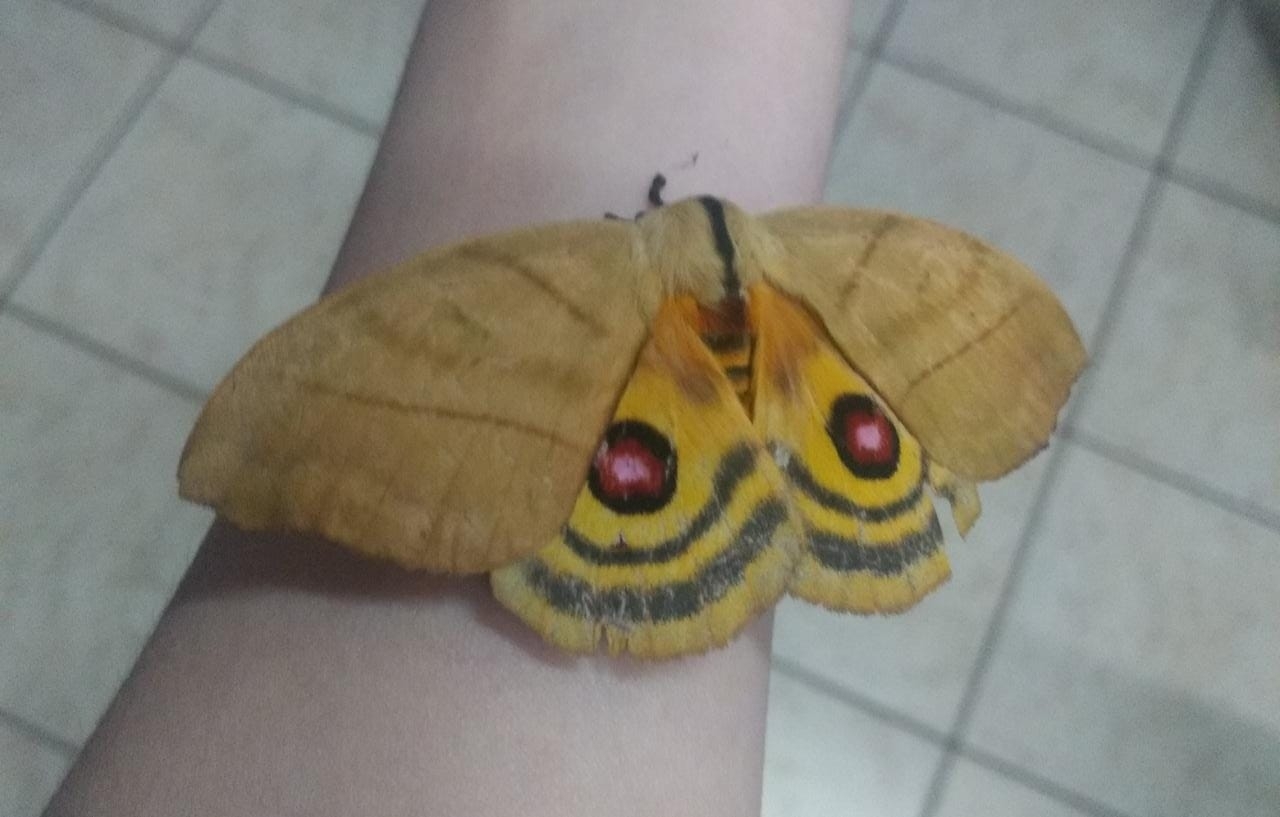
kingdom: Animalia
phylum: Arthropoda
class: Insecta
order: Lepidoptera
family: Saturniidae
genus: Hyperchiria
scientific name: Hyperchiria incisa
